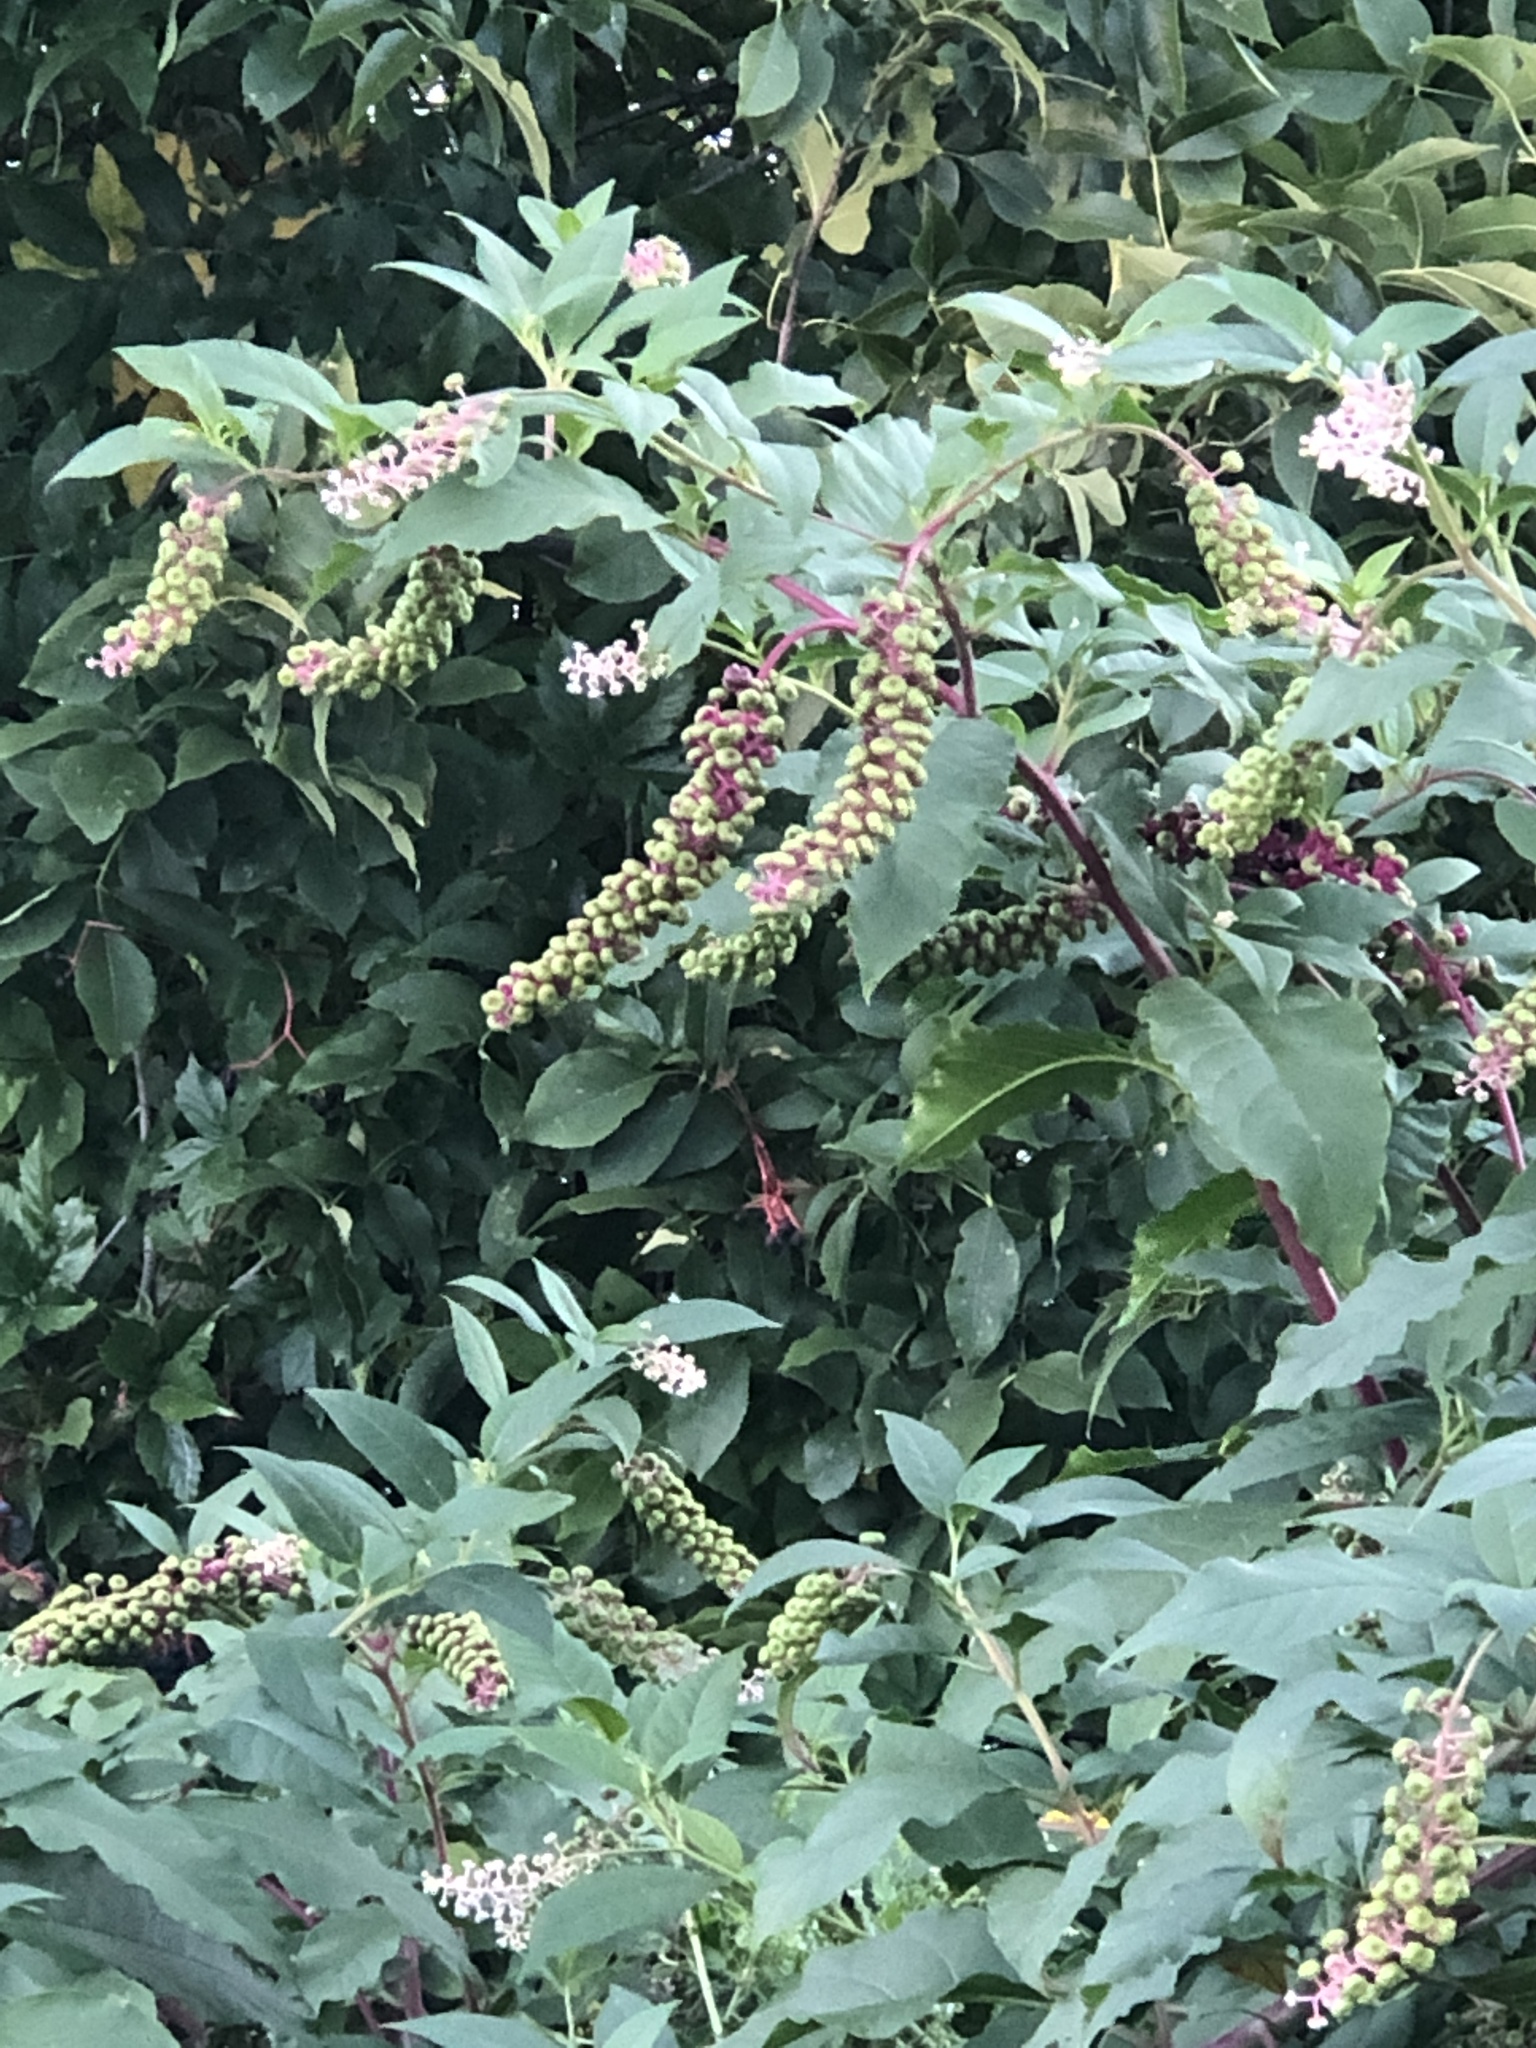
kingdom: Plantae
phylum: Tracheophyta
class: Magnoliopsida
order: Caryophyllales
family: Phytolaccaceae
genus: Phytolacca
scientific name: Phytolacca americana
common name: American pokeweed
